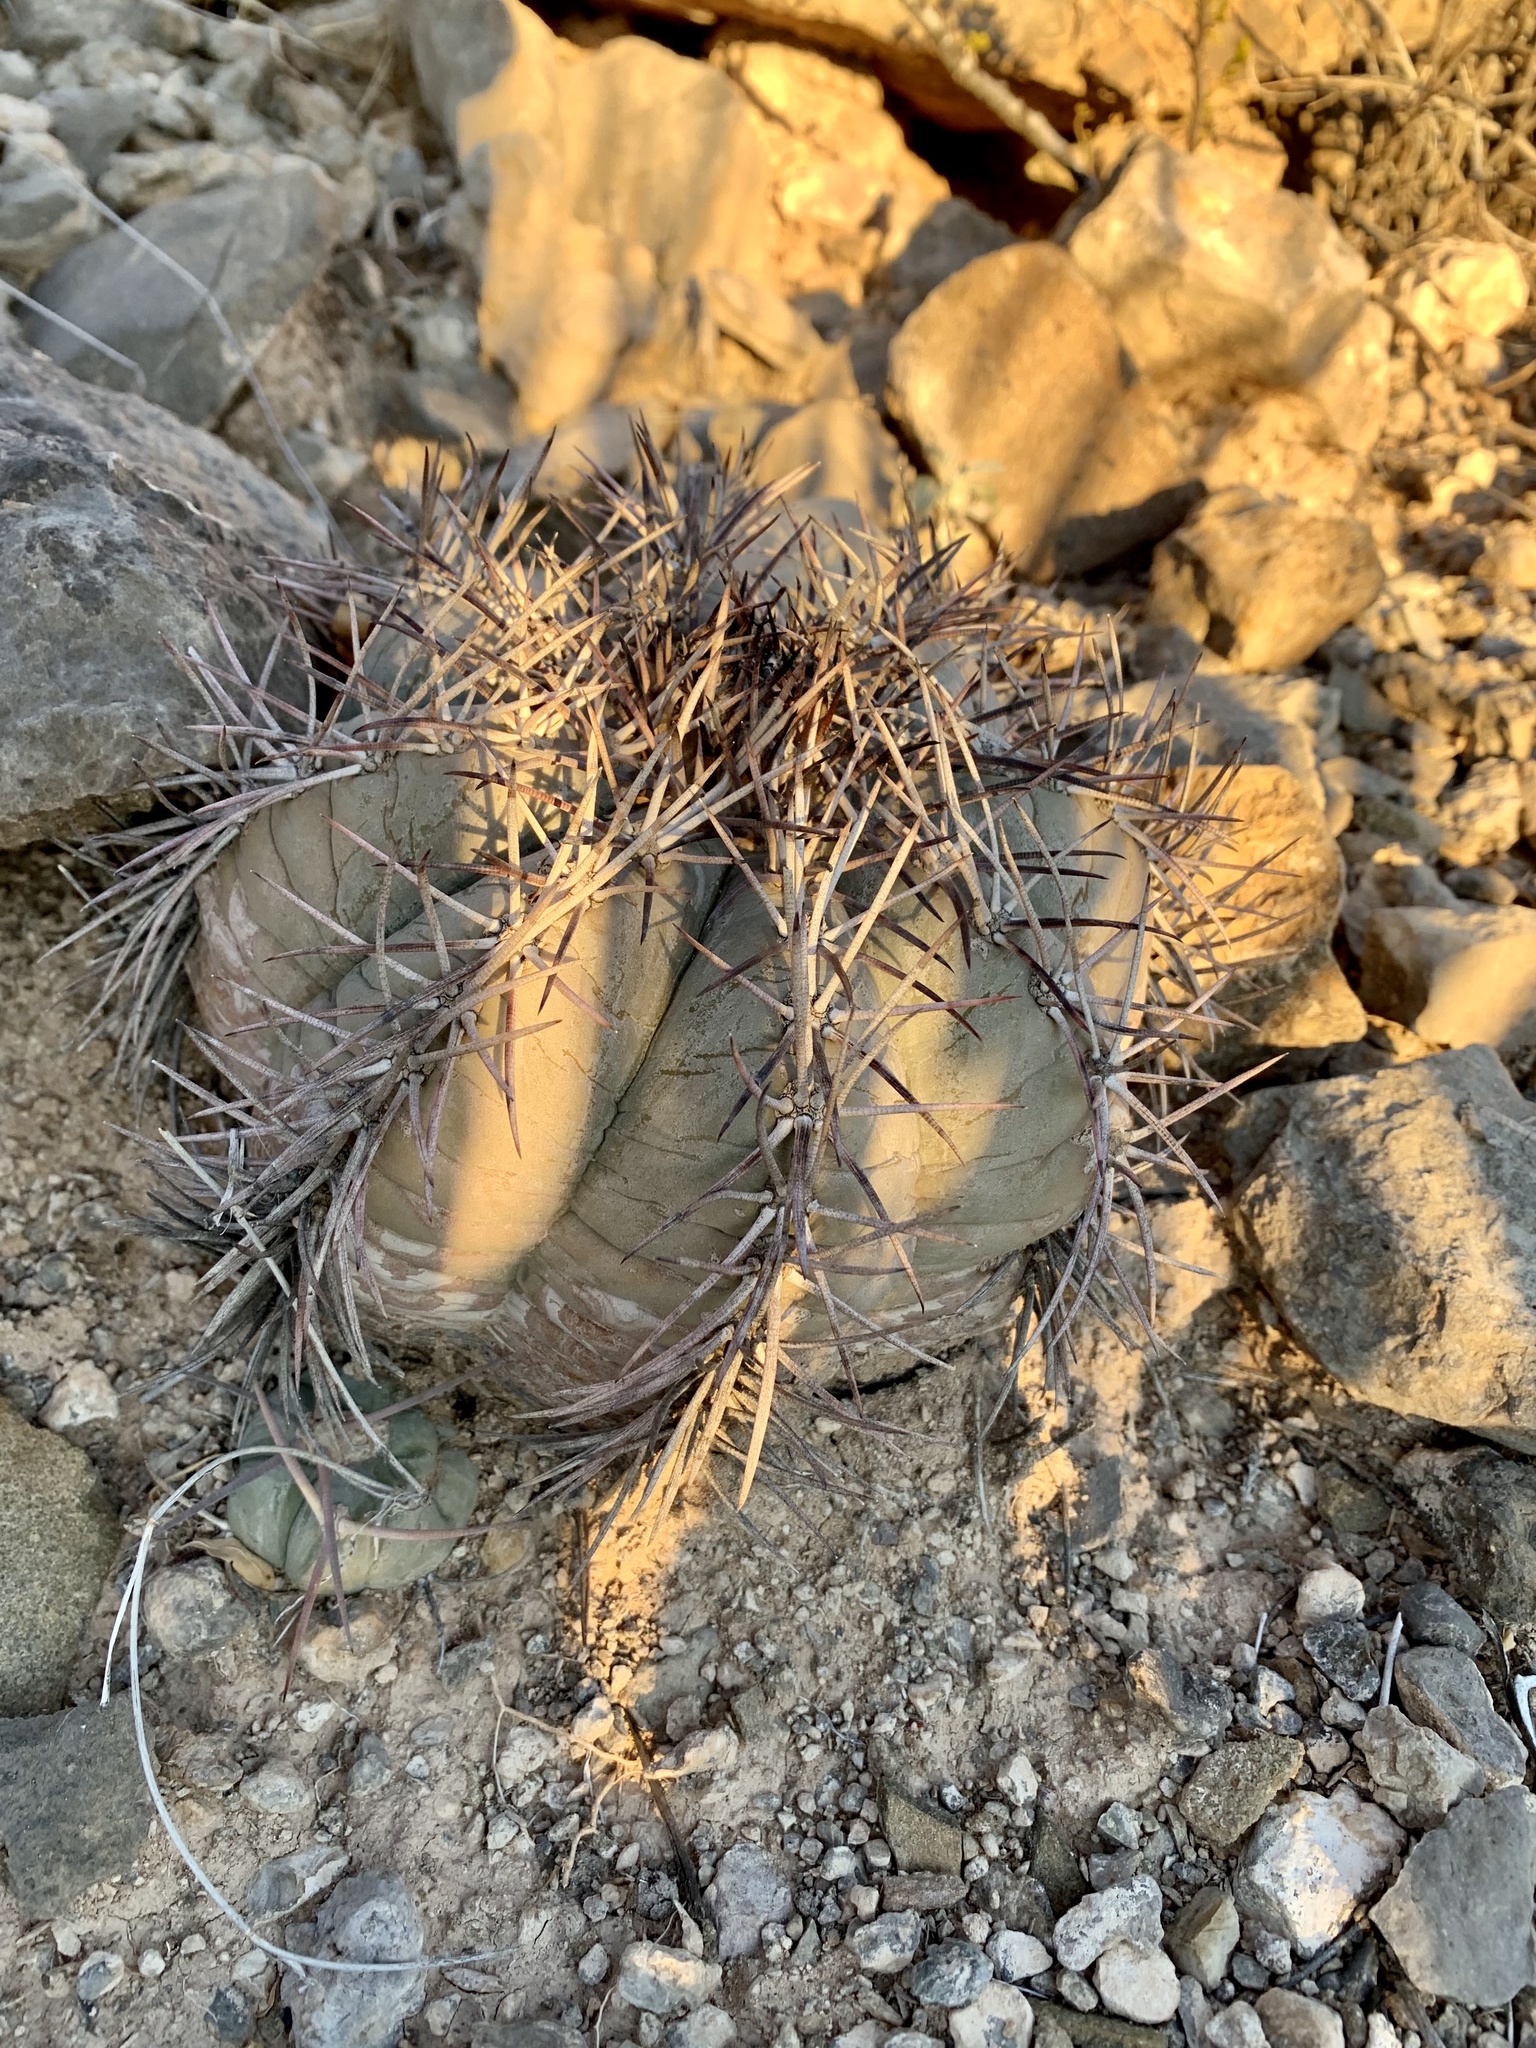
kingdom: Plantae
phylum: Tracheophyta
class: Magnoliopsida
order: Caryophyllales
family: Cactaceae
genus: Echinocactus
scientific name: Echinocactus horizonthalonius
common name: Devilshead
